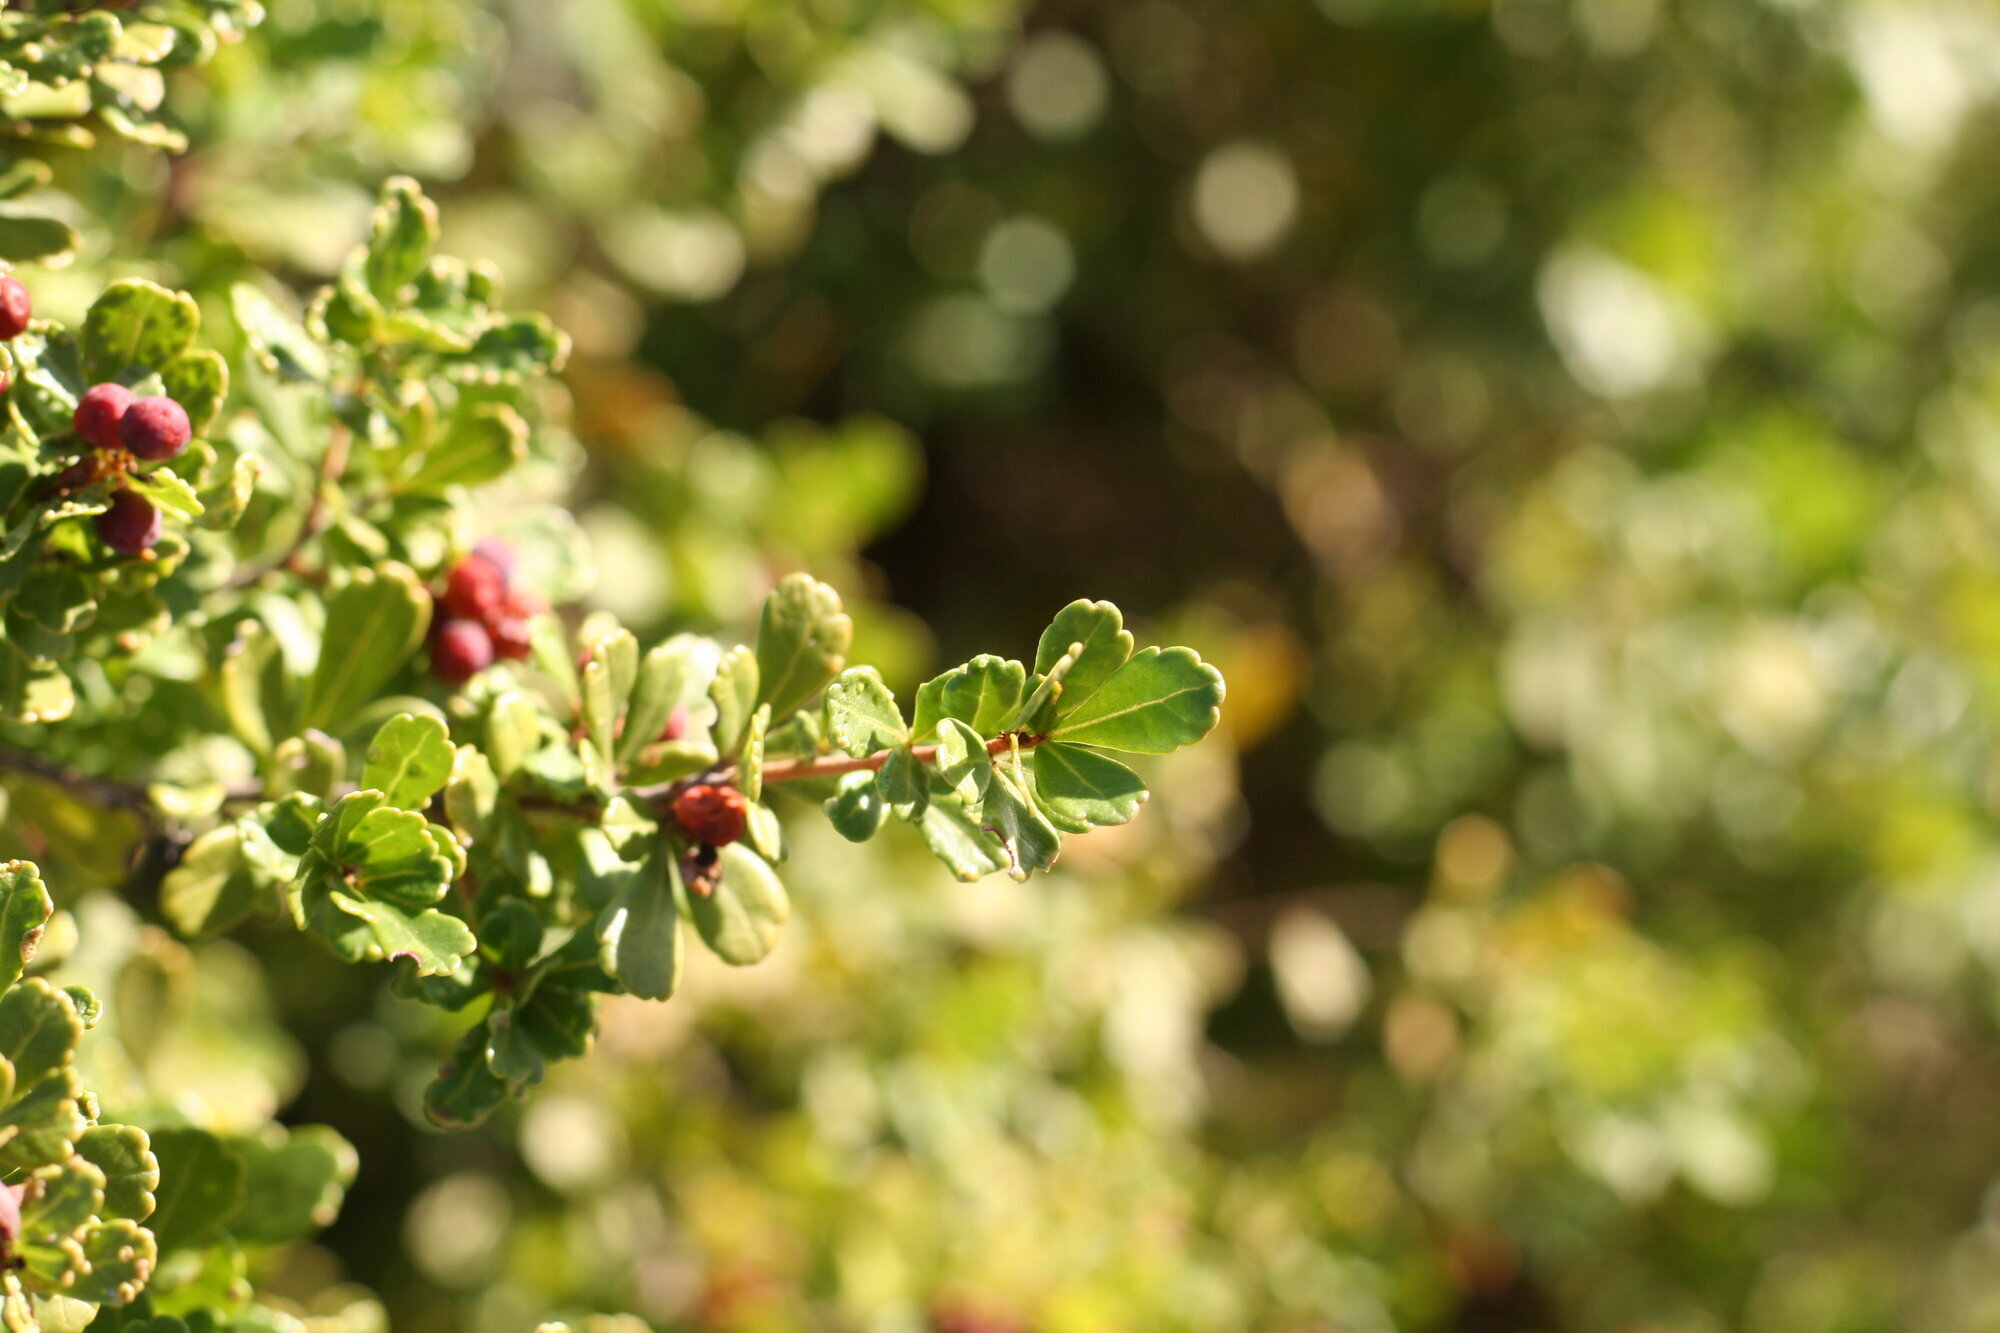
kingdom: Plantae
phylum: Tracheophyta
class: Magnoliopsida
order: Sapindales
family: Anacardiaceae
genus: Searsia
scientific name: Searsia crenata
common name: Crowberry
